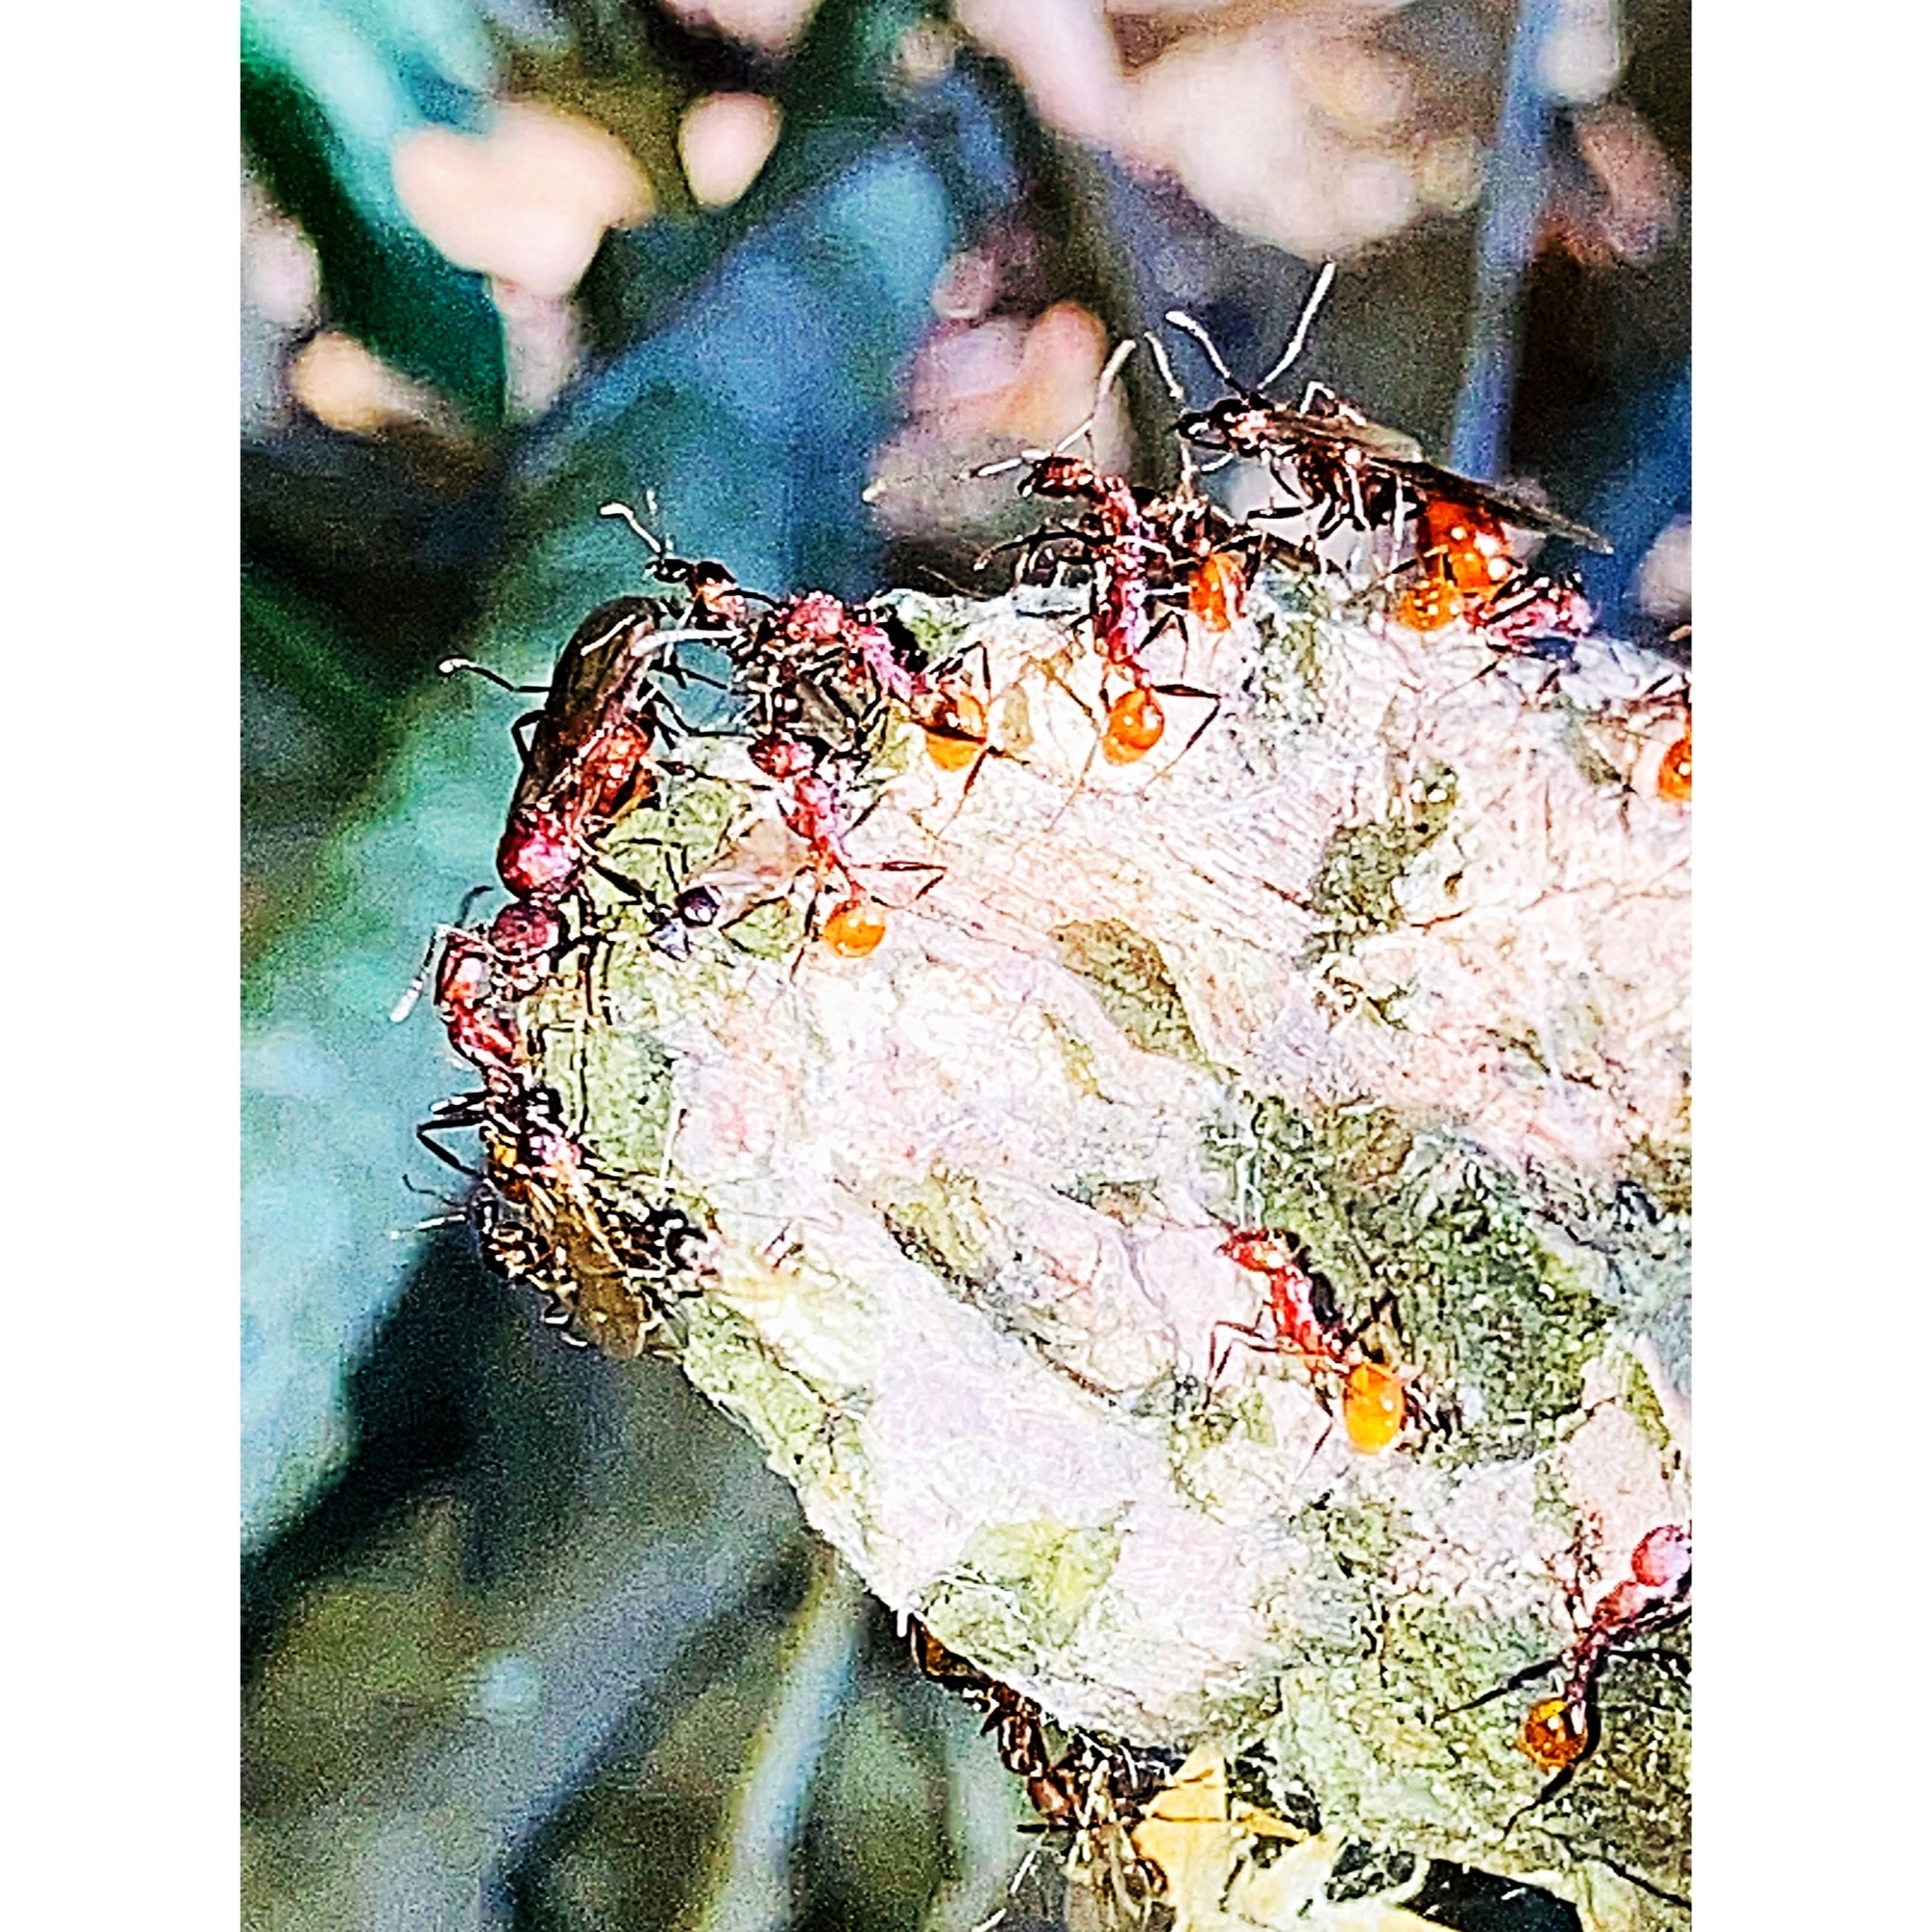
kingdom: Animalia
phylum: Arthropoda
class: Insecta
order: Hymenoptera
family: Formicidae
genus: Aphaenogaster
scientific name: Aphaenogaster lamellidens
